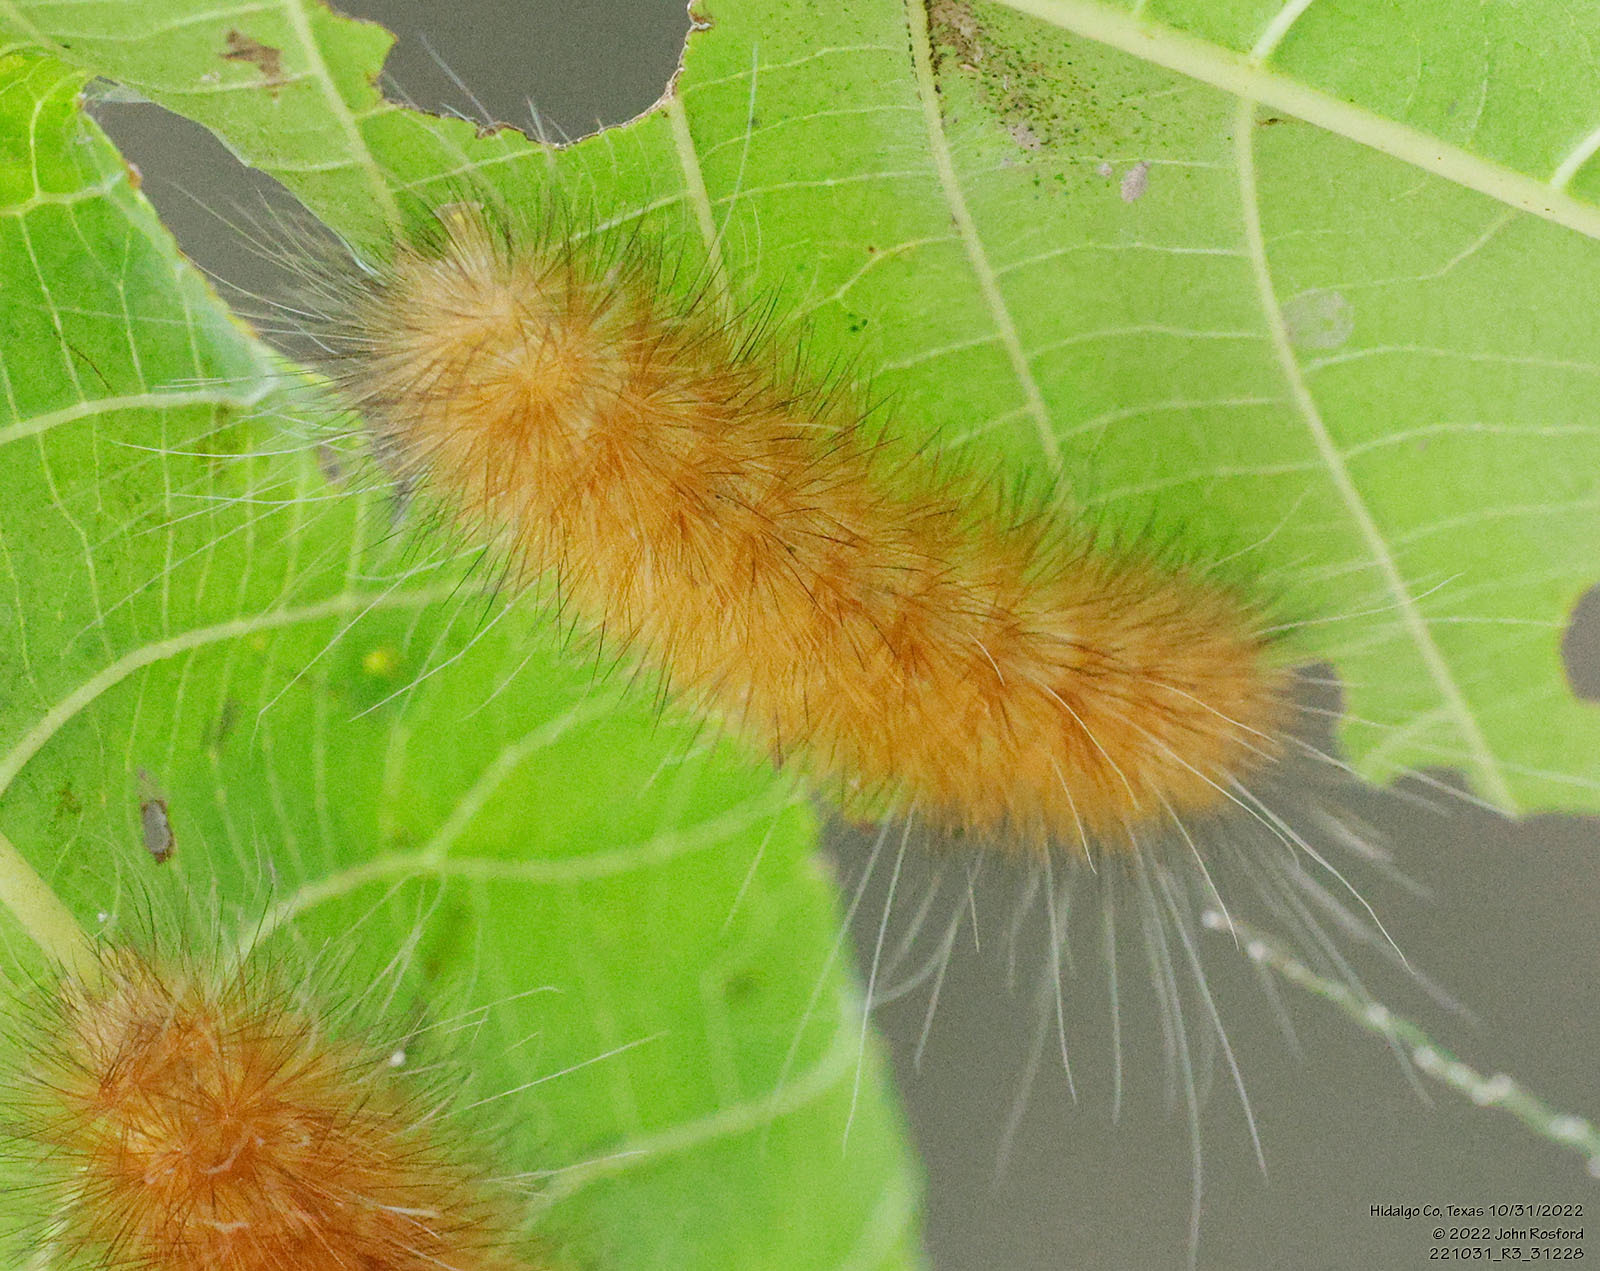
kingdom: Animalia
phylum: Arthropoda
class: Insecta
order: Lepidoptera
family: Erebidae
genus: Spilosoma
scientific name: Spilosoma virginica
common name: Virginia tiger moth
